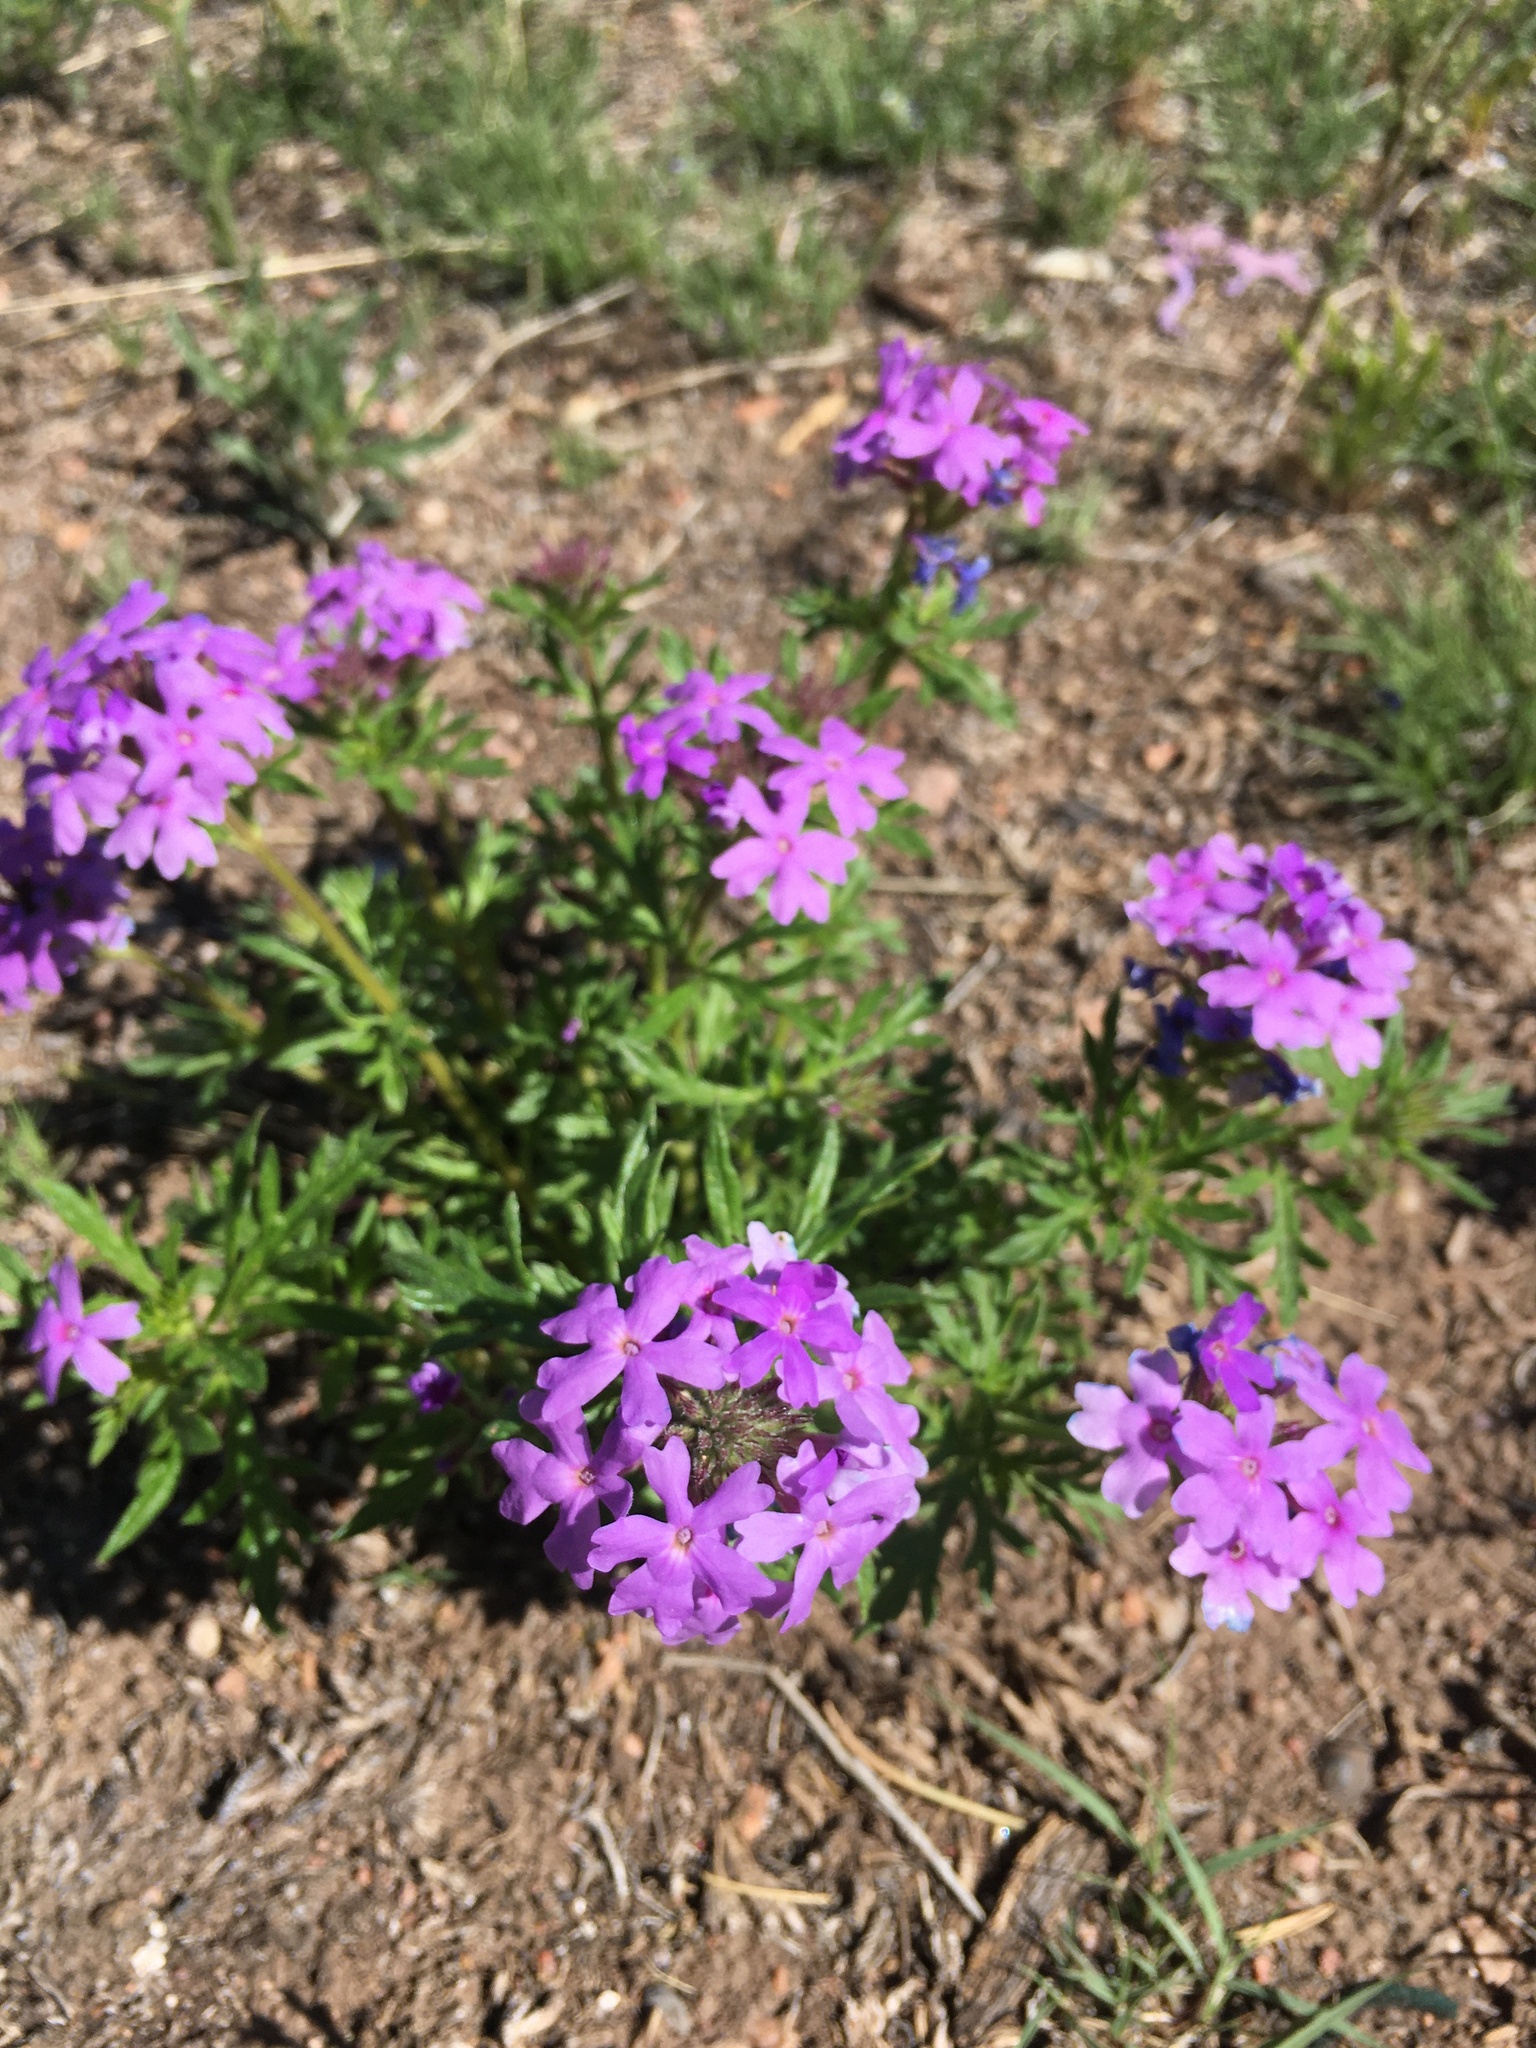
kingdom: Plantae
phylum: Tracheophyta
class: Magnoliopsida
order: Lamiales
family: Verbenaceae
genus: Verbena
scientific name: Verbena bipinnatifida
